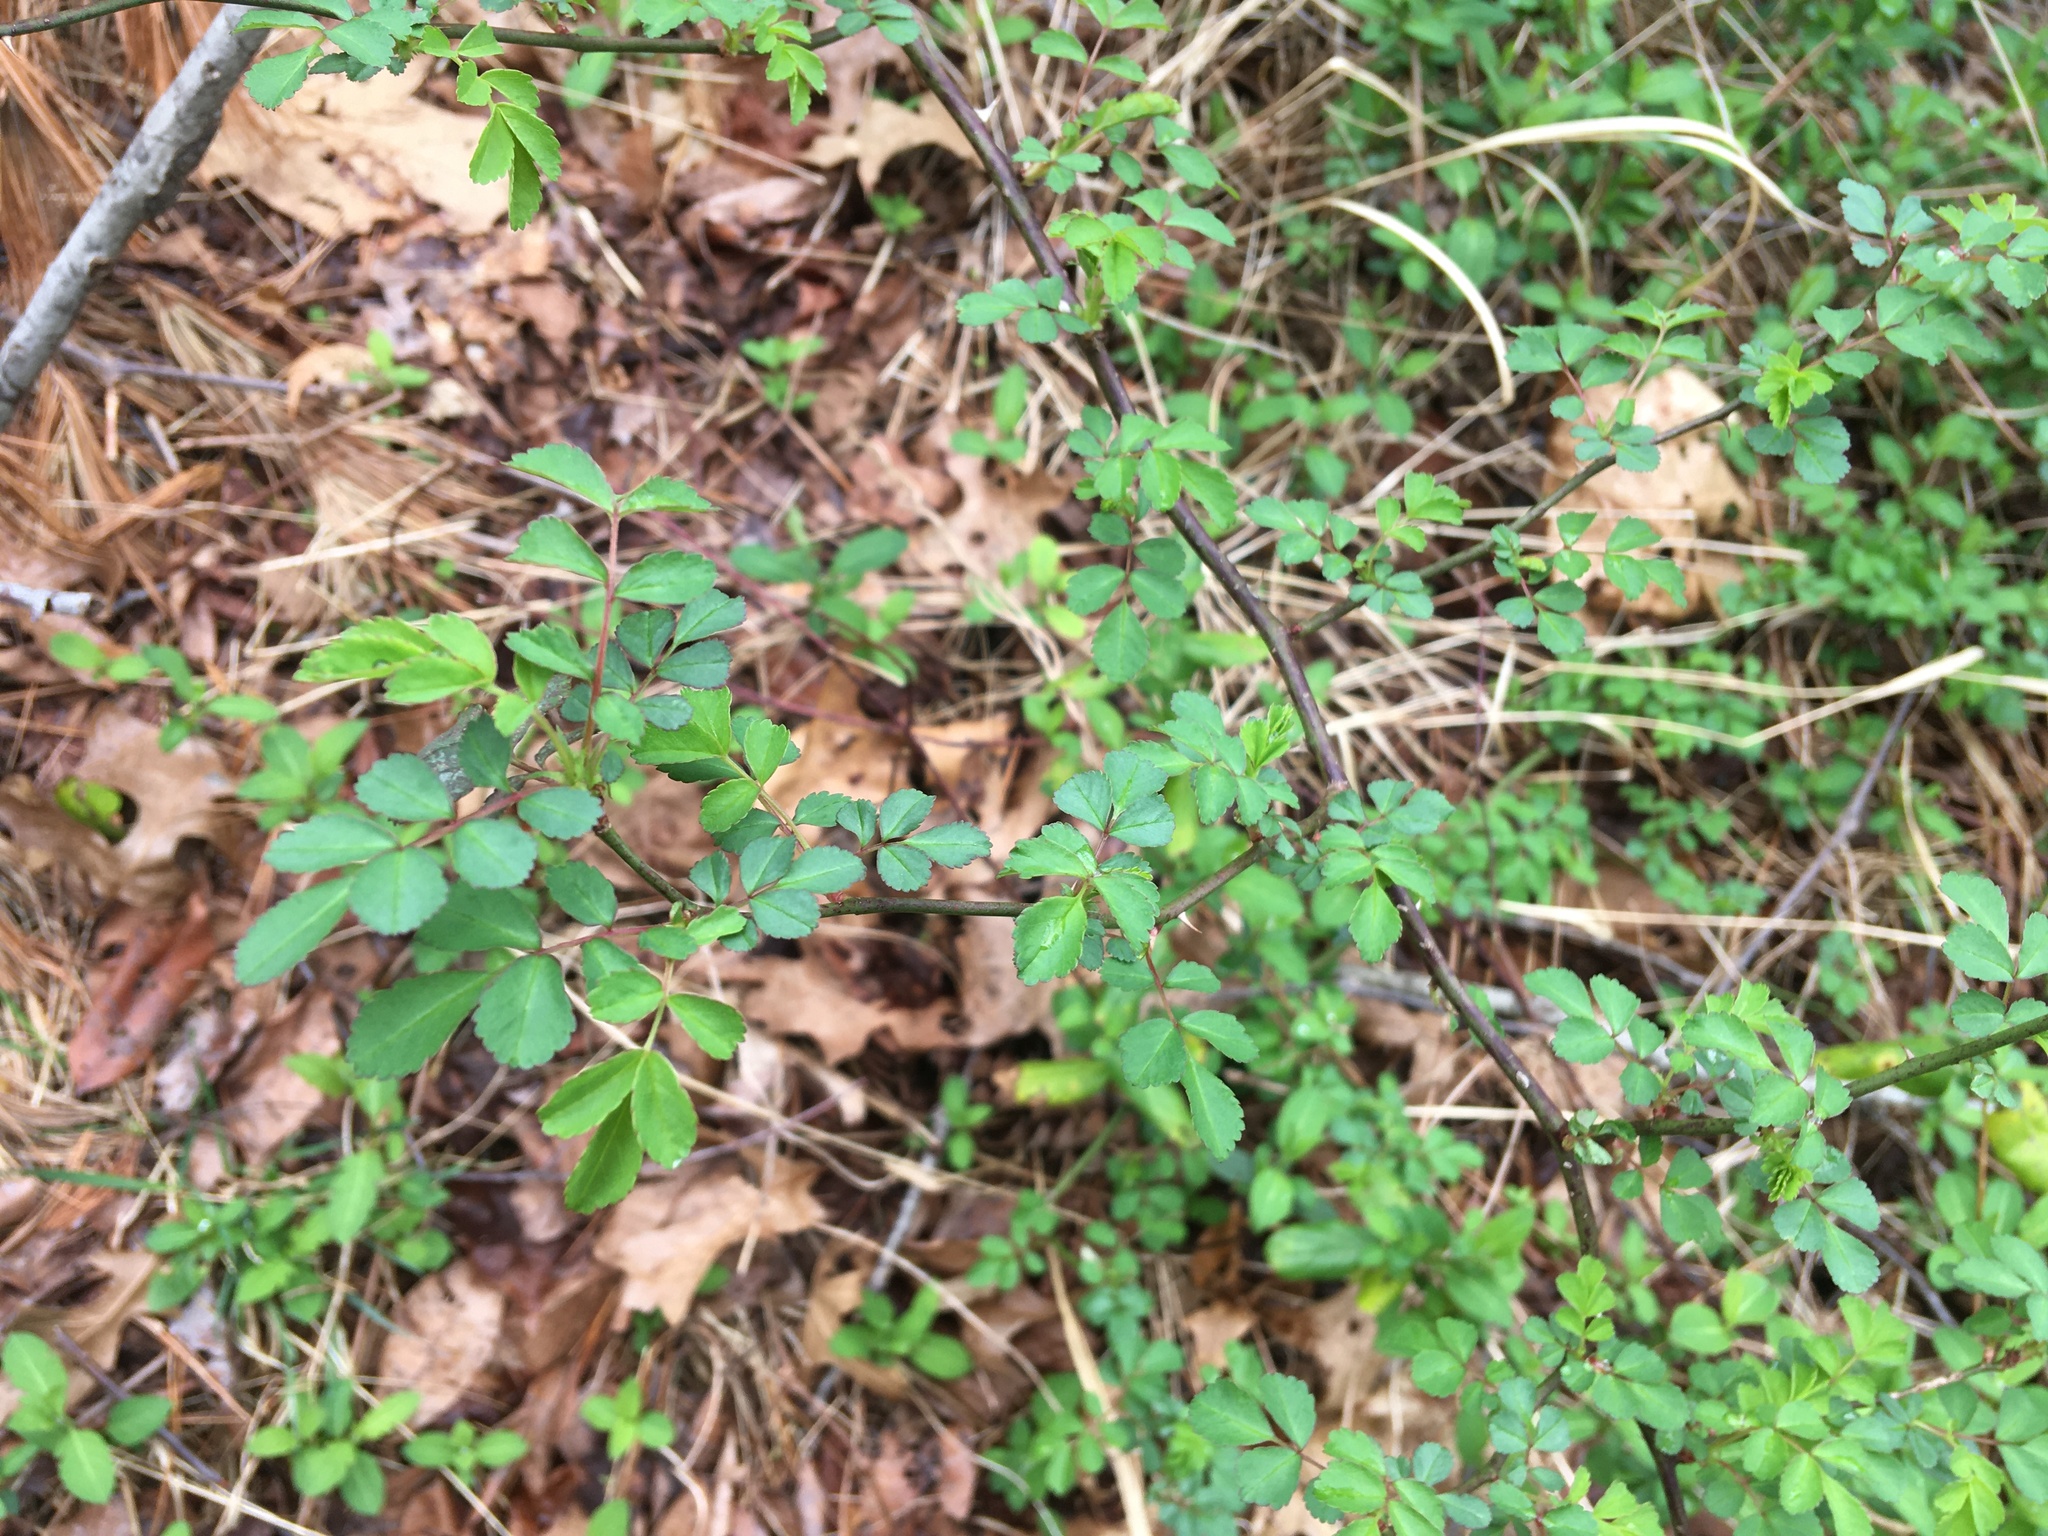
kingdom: Plantae
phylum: Tracheophyta
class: Magnoliopsida
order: Rosales
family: Rosaceae
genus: Rosa
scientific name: Rosa multiflora
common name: Multiflora rose
